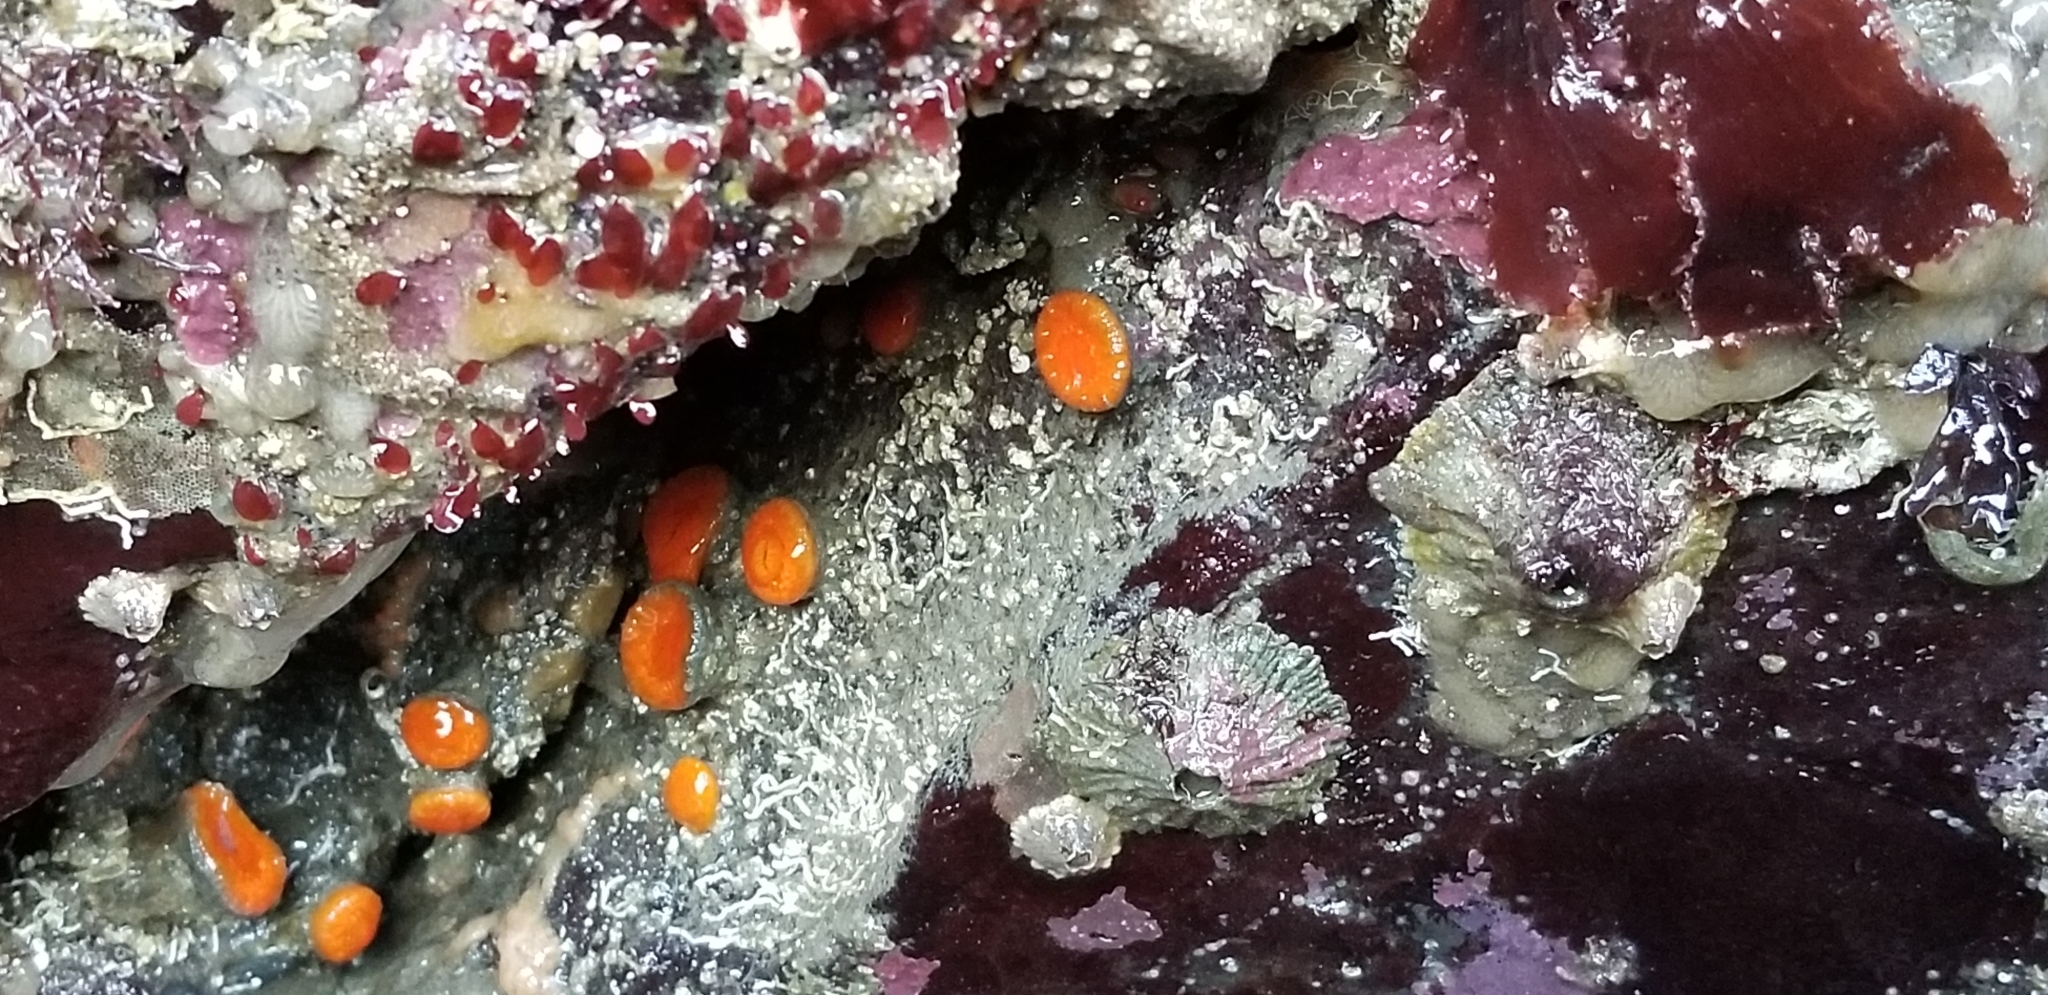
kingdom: Animalia
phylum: Cnidaria
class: Anthozoa
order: Scleractinia
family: Dendrophylliidae
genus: Balanophyllia
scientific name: Balanophyllia elegans
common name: Orange stony coral
